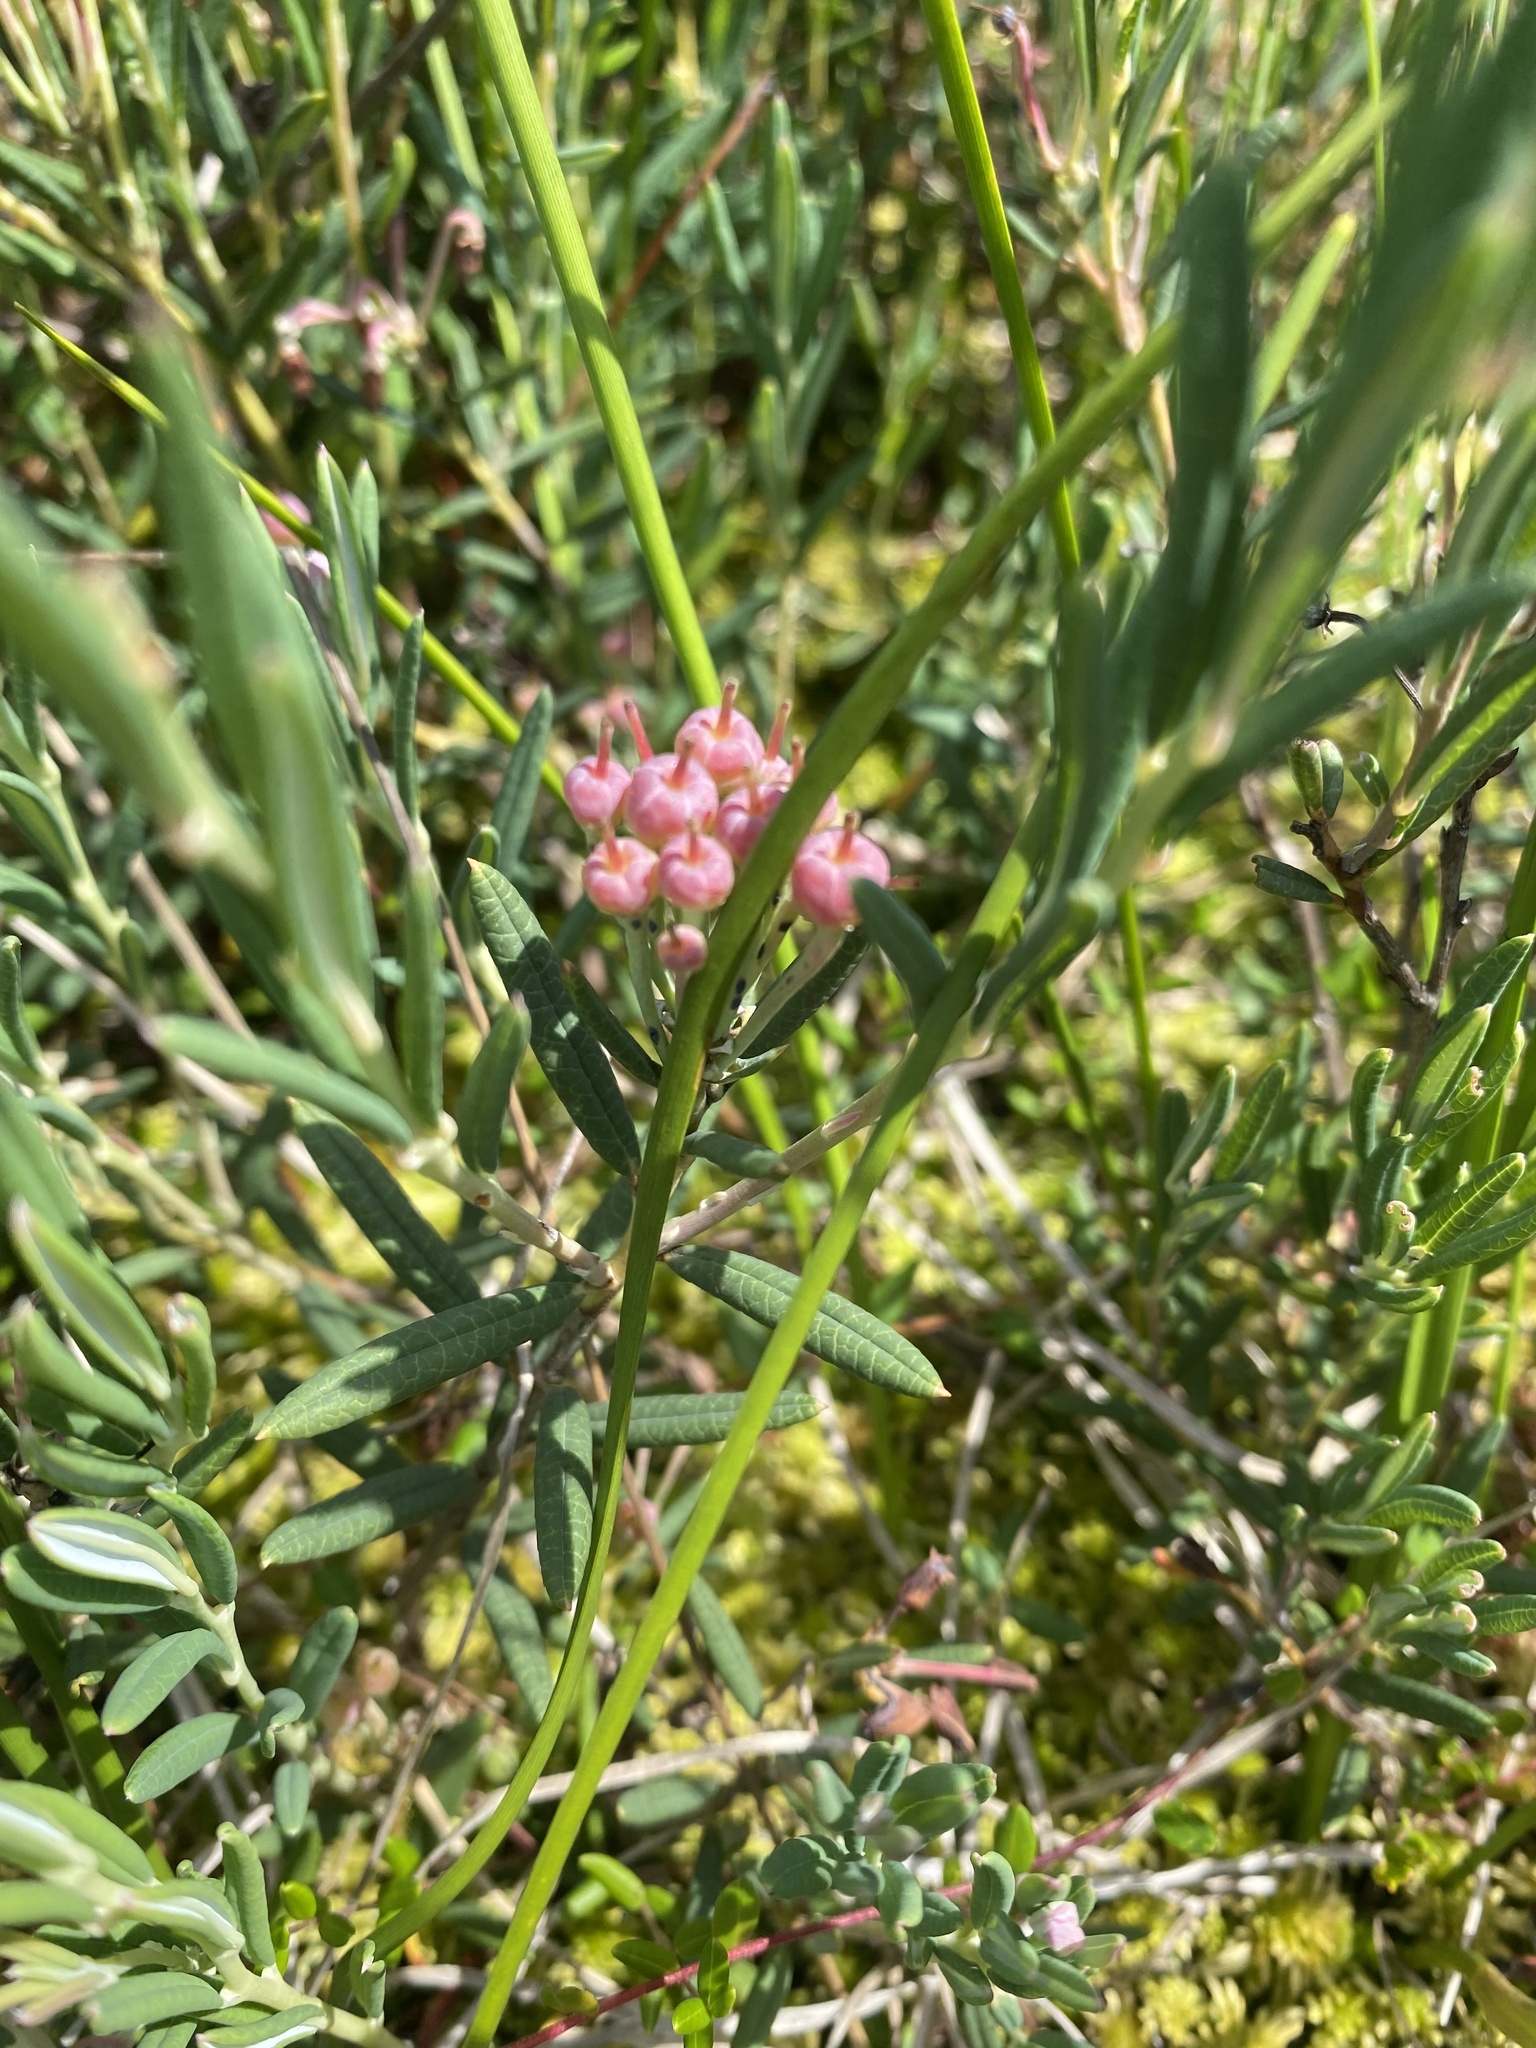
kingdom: Plantae
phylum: Tracheophyta
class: Magnoliopsida
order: Ericales
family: Ericaceae
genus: Andromeda
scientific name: Andromeda polifolia
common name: Bog-rosemary
